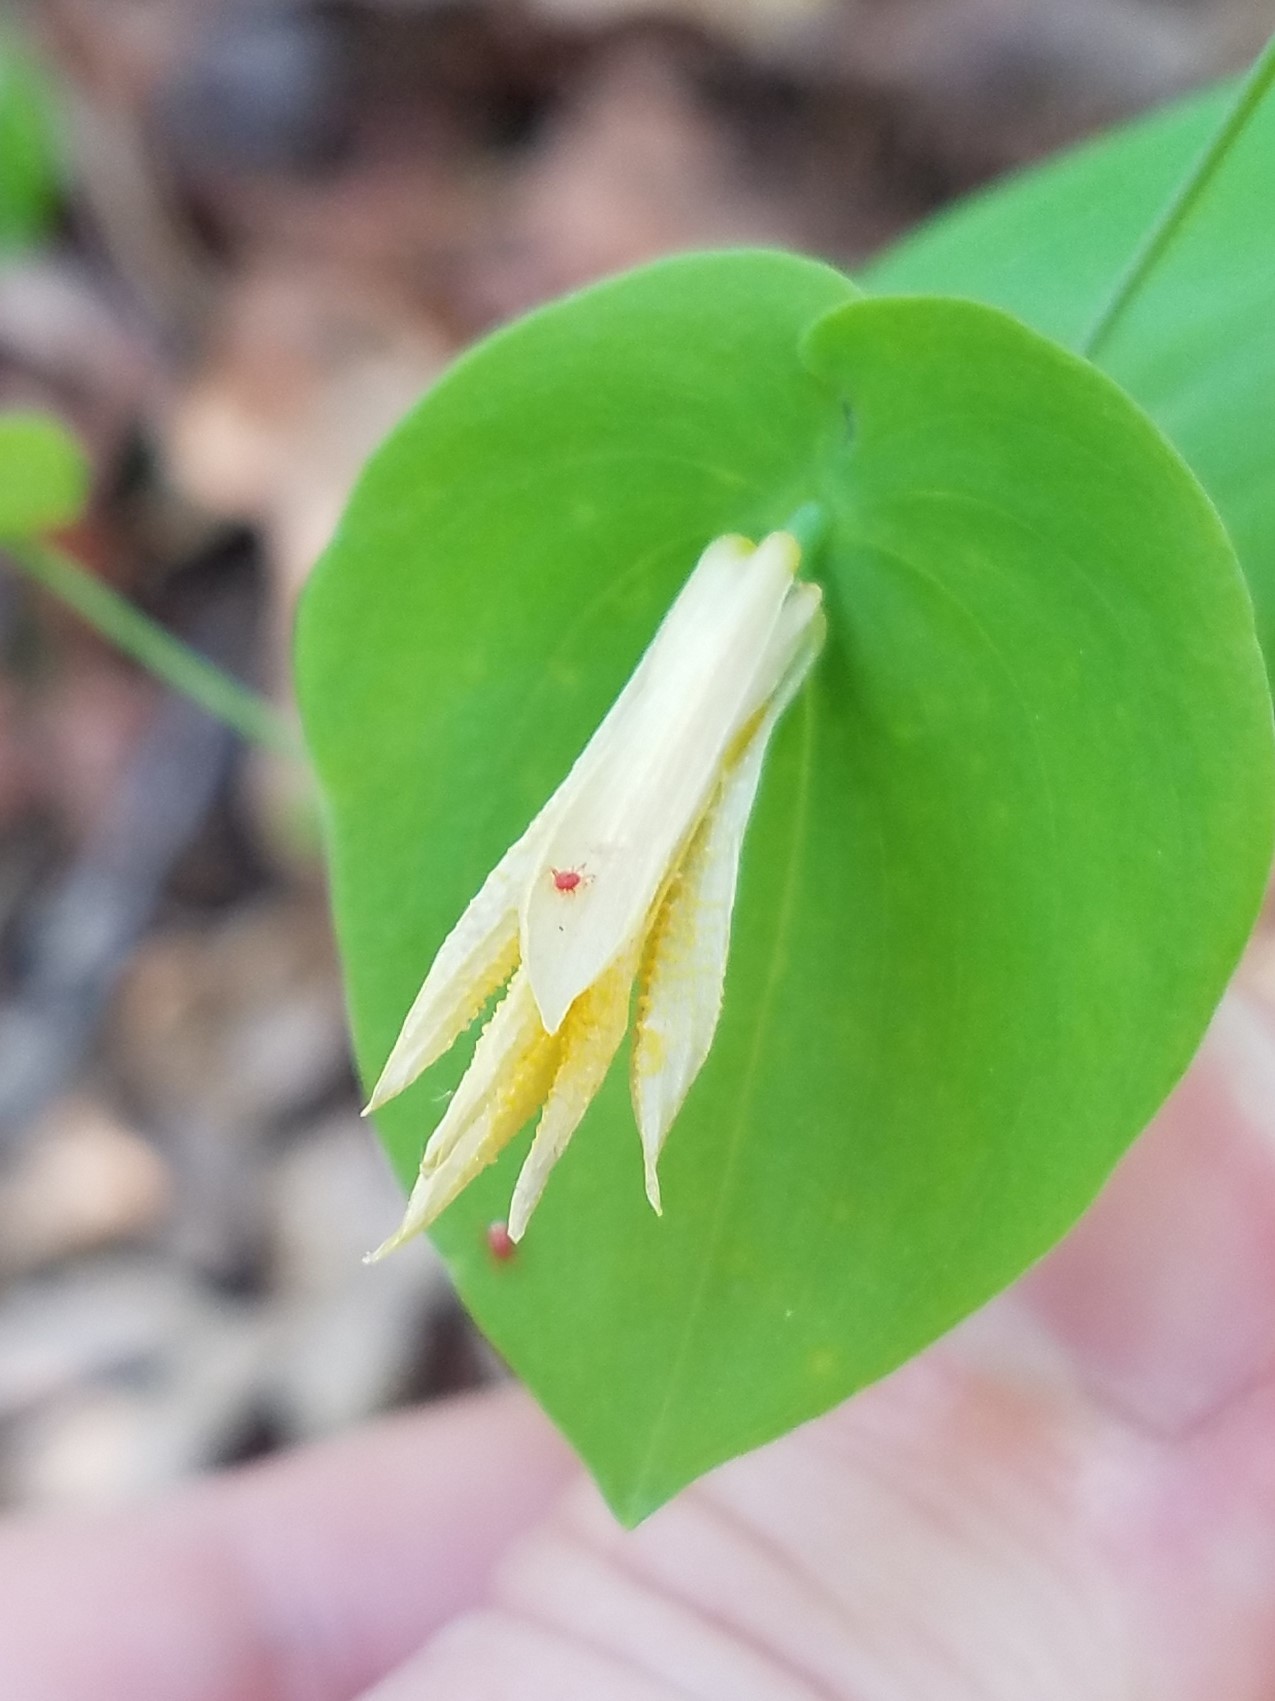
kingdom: Plantae
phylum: Tracheophyta
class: Liliopsida
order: Liliales
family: Colchicaceae
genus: Uvularia
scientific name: Uvularia perfoliata
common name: Perfoliate bellwort
